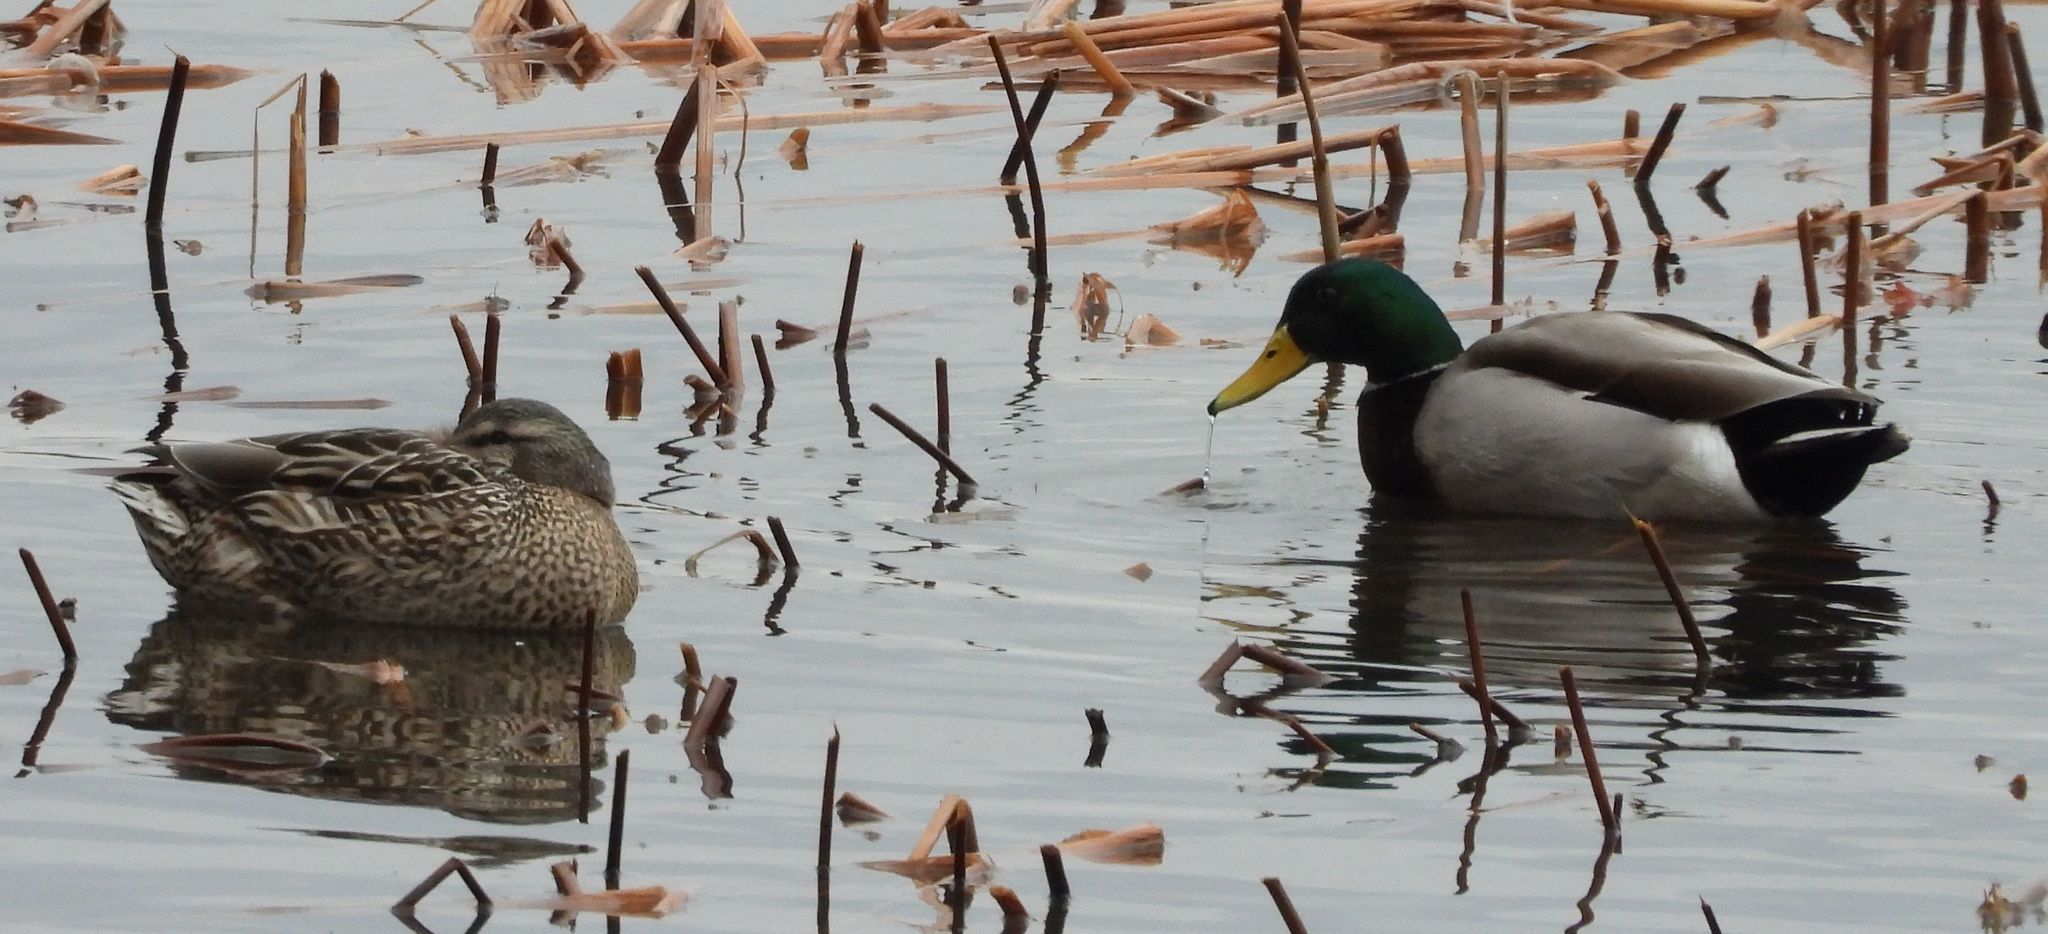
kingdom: Animalia
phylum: Chordata
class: Aves
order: Anseriformes
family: Anatidae
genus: Anas
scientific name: Anas platyrhynchos
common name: Mallard
